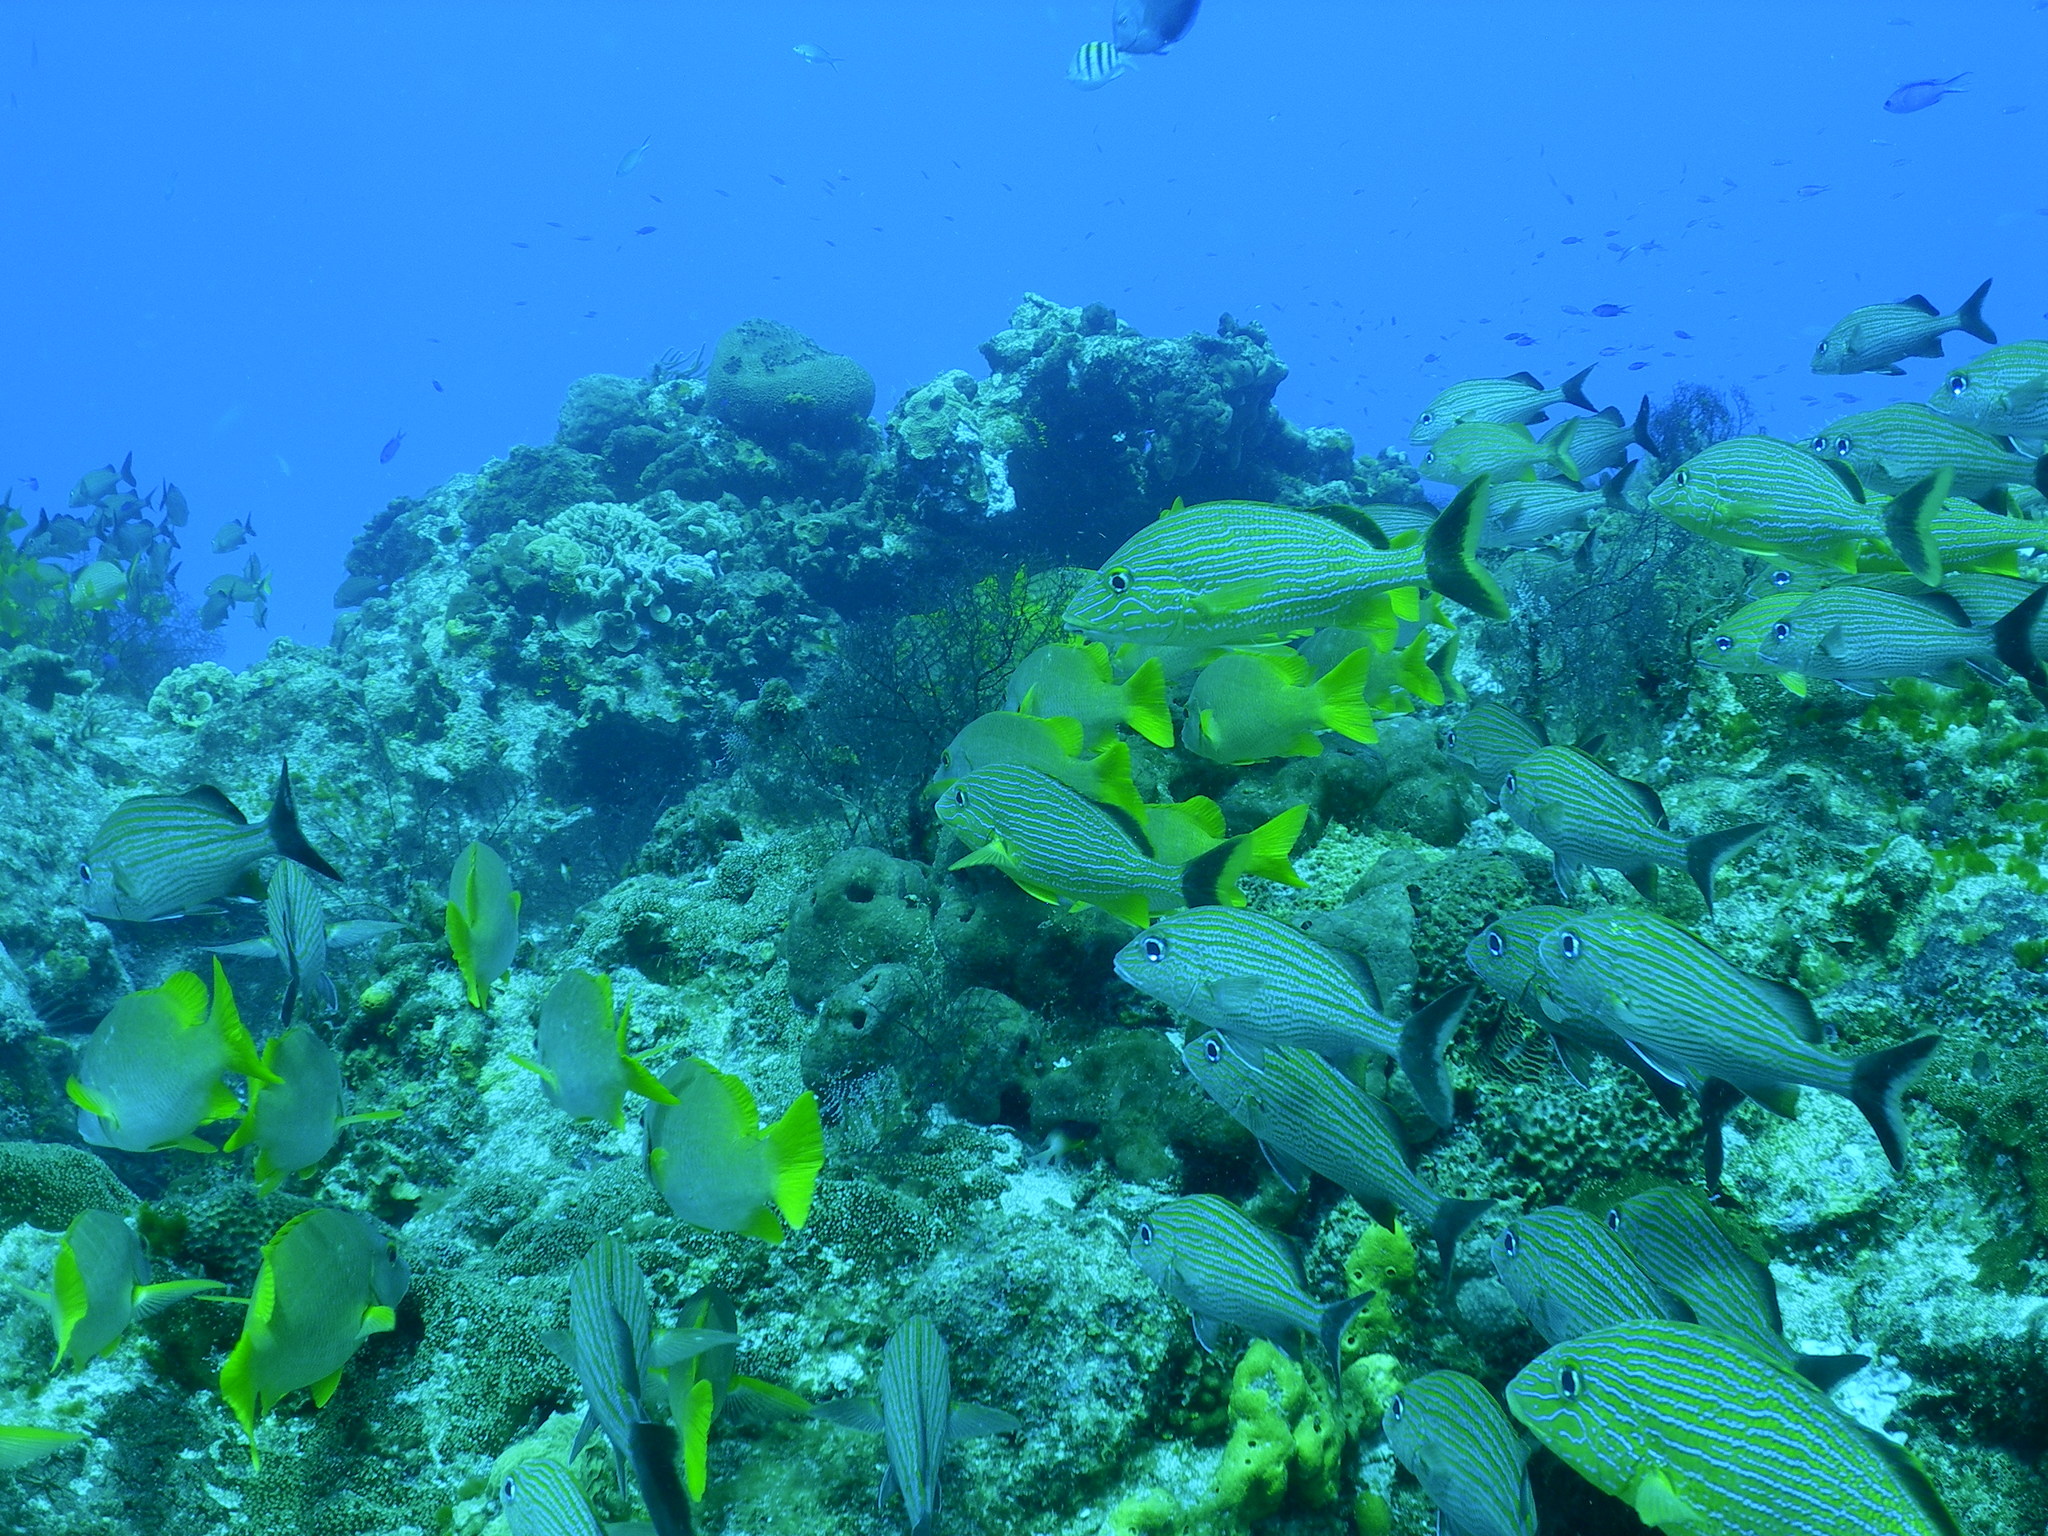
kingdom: Animalia
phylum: Chordata
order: Perciformes
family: Haemulidae
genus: Haemulon
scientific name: Haemulon sciurus
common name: Bluestriped grunt
